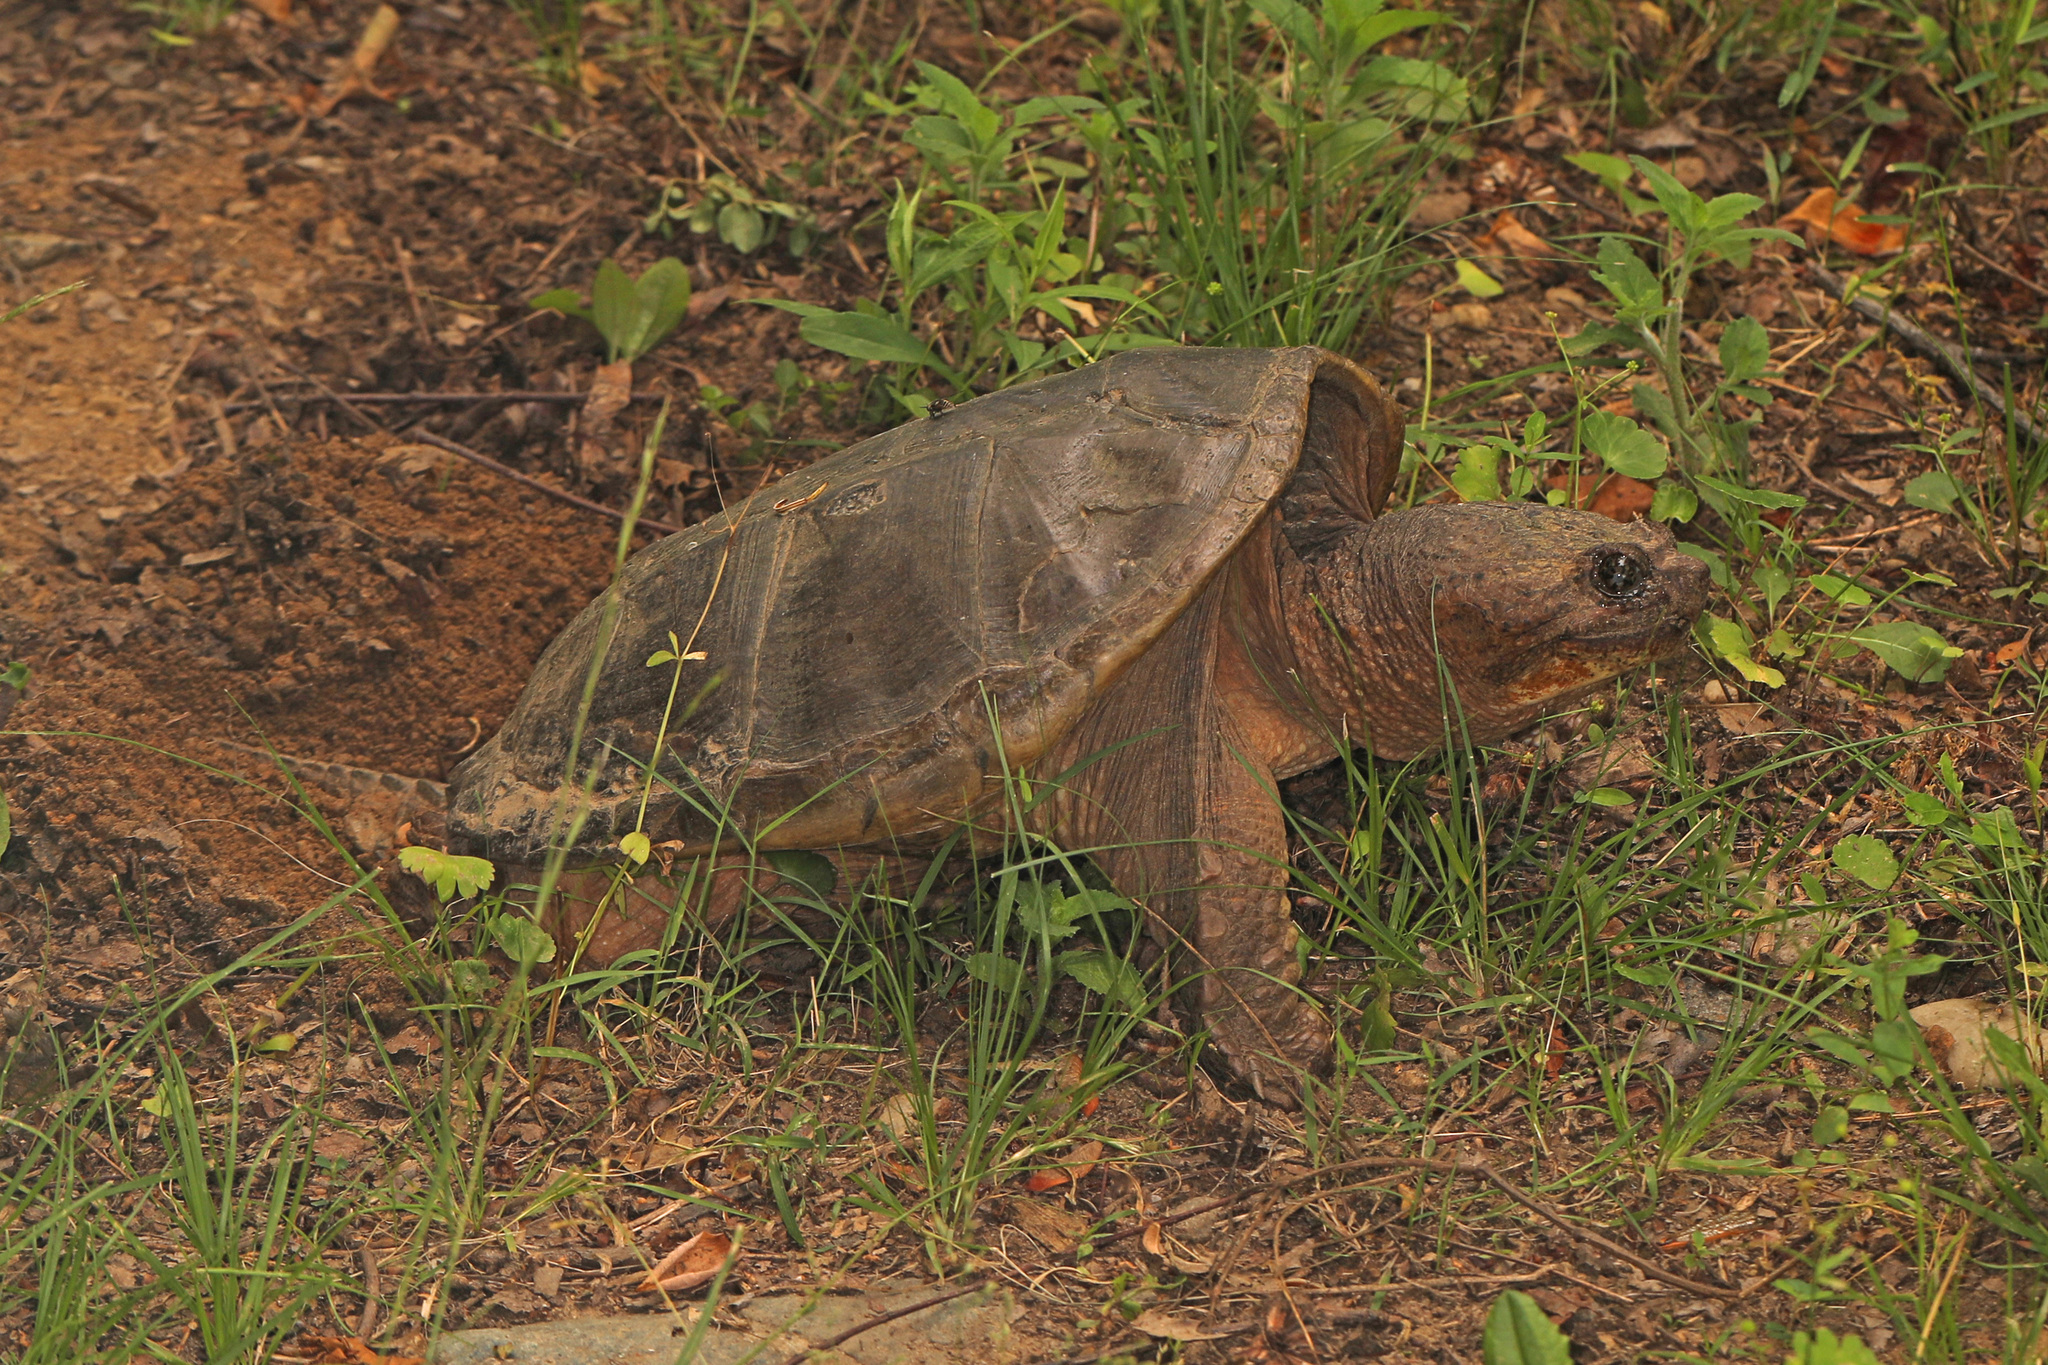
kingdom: Animalia
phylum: Chordata
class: Testudines
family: Chelydridae
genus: Chelydra
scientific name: Chelydra serpentina
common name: Common snapping turtle
